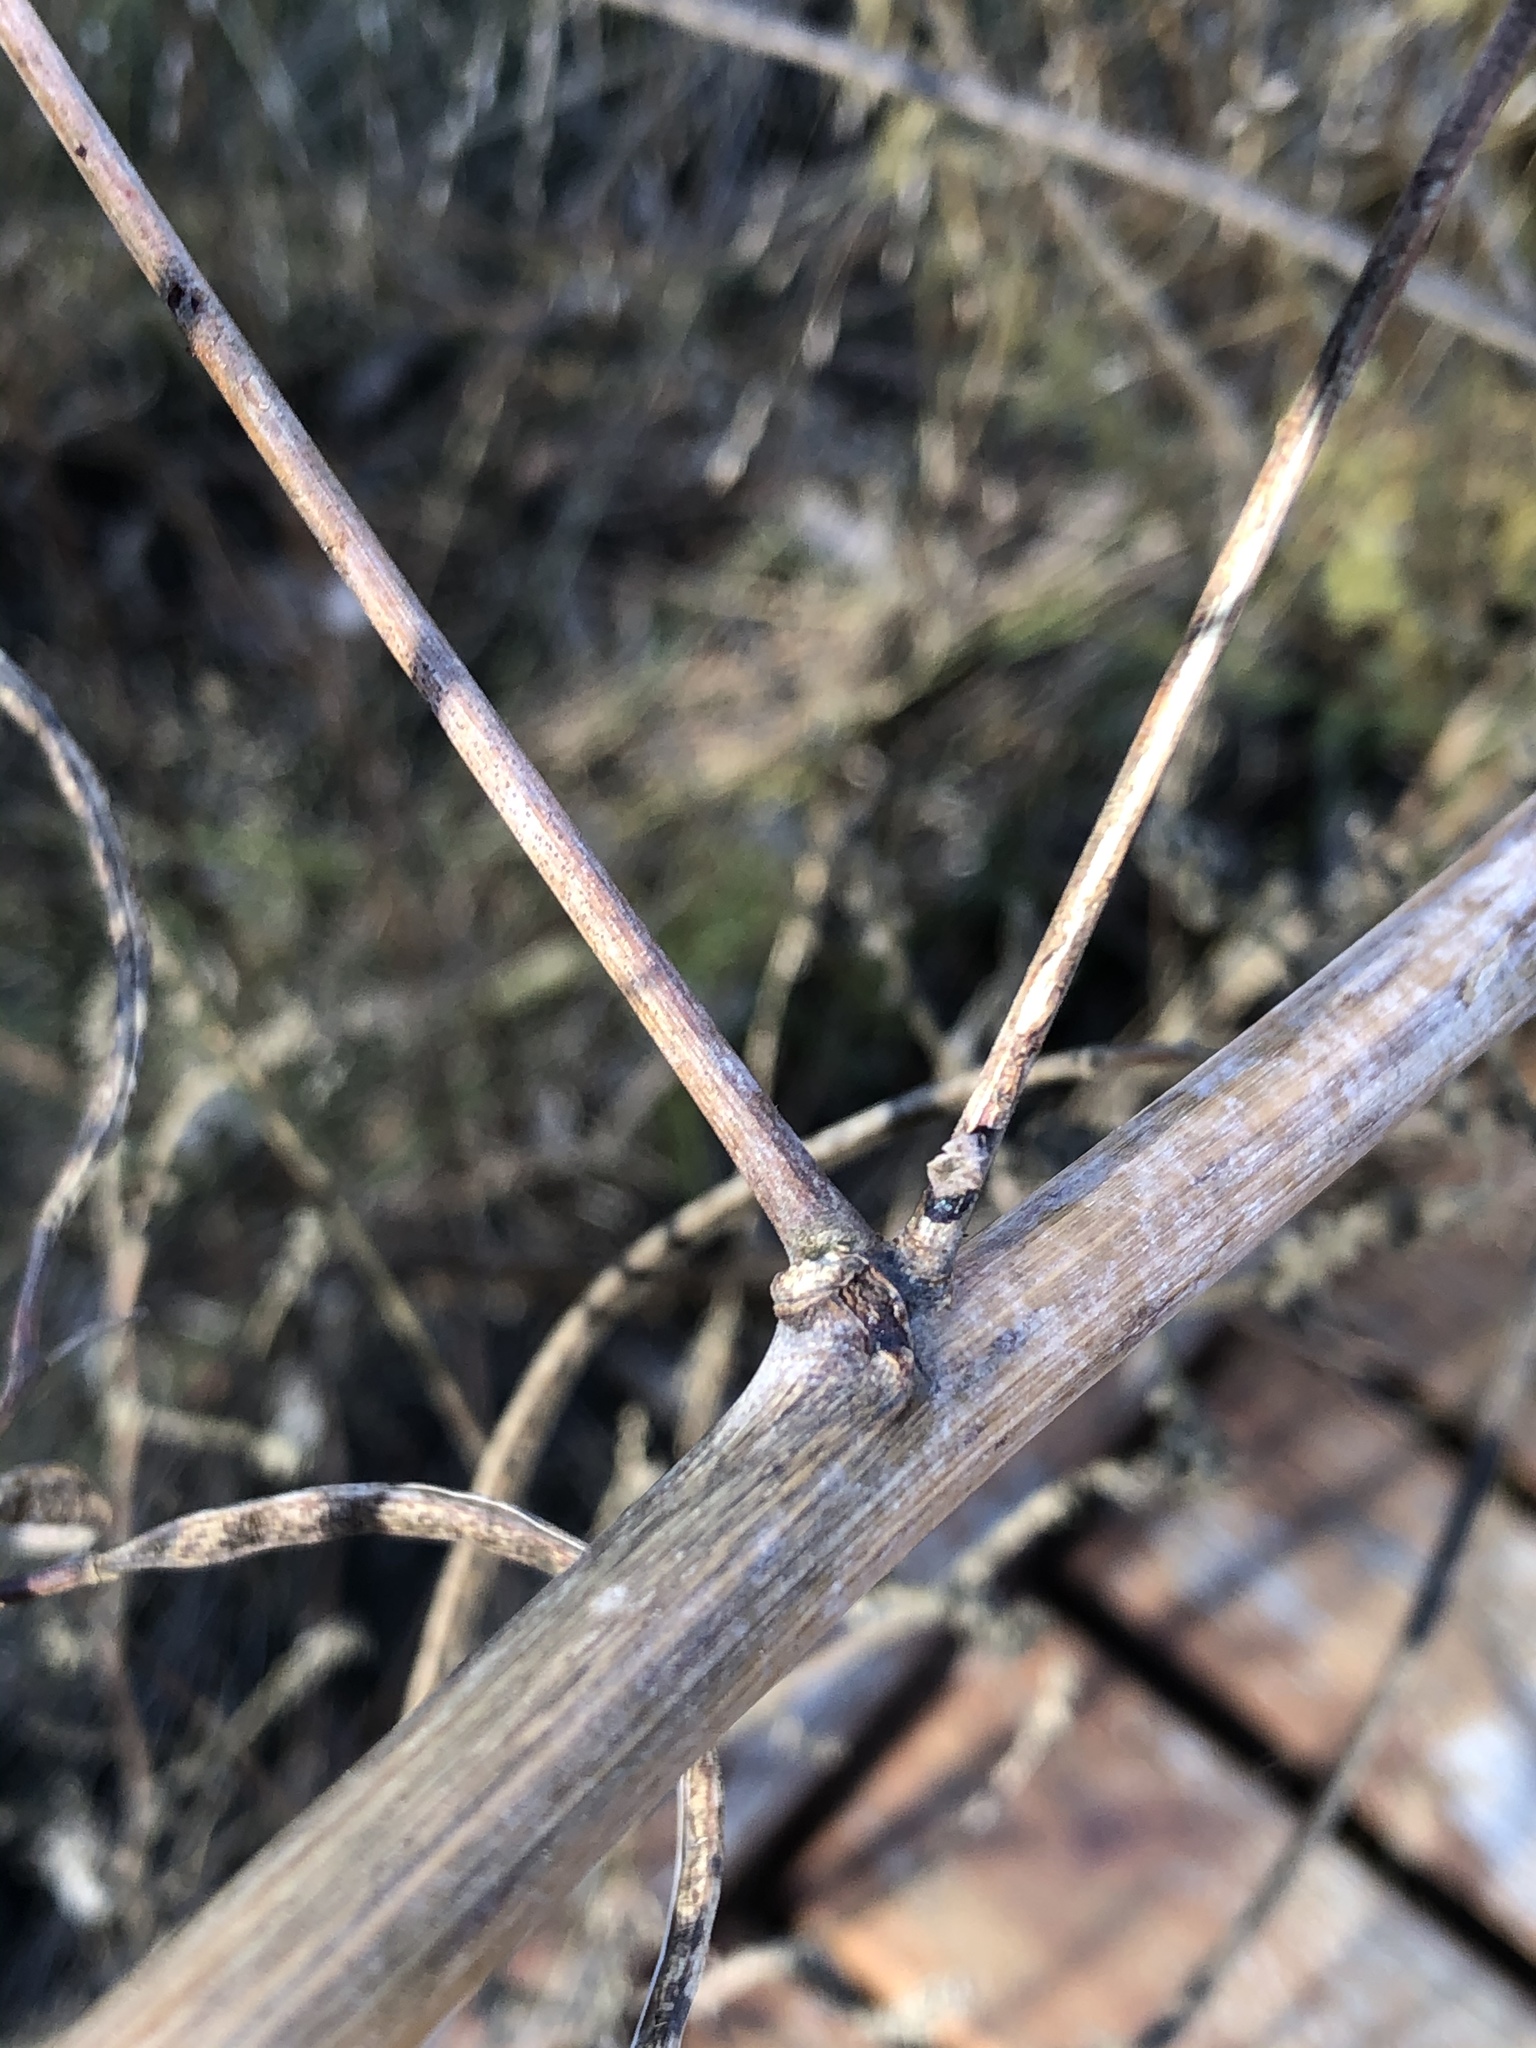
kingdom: Plantae
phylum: Tracheophyta
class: Magnoliopsida
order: Fabales
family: Fabaceae
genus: Sesbania
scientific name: Sesbania herbacea
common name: Bigpod sesbania
